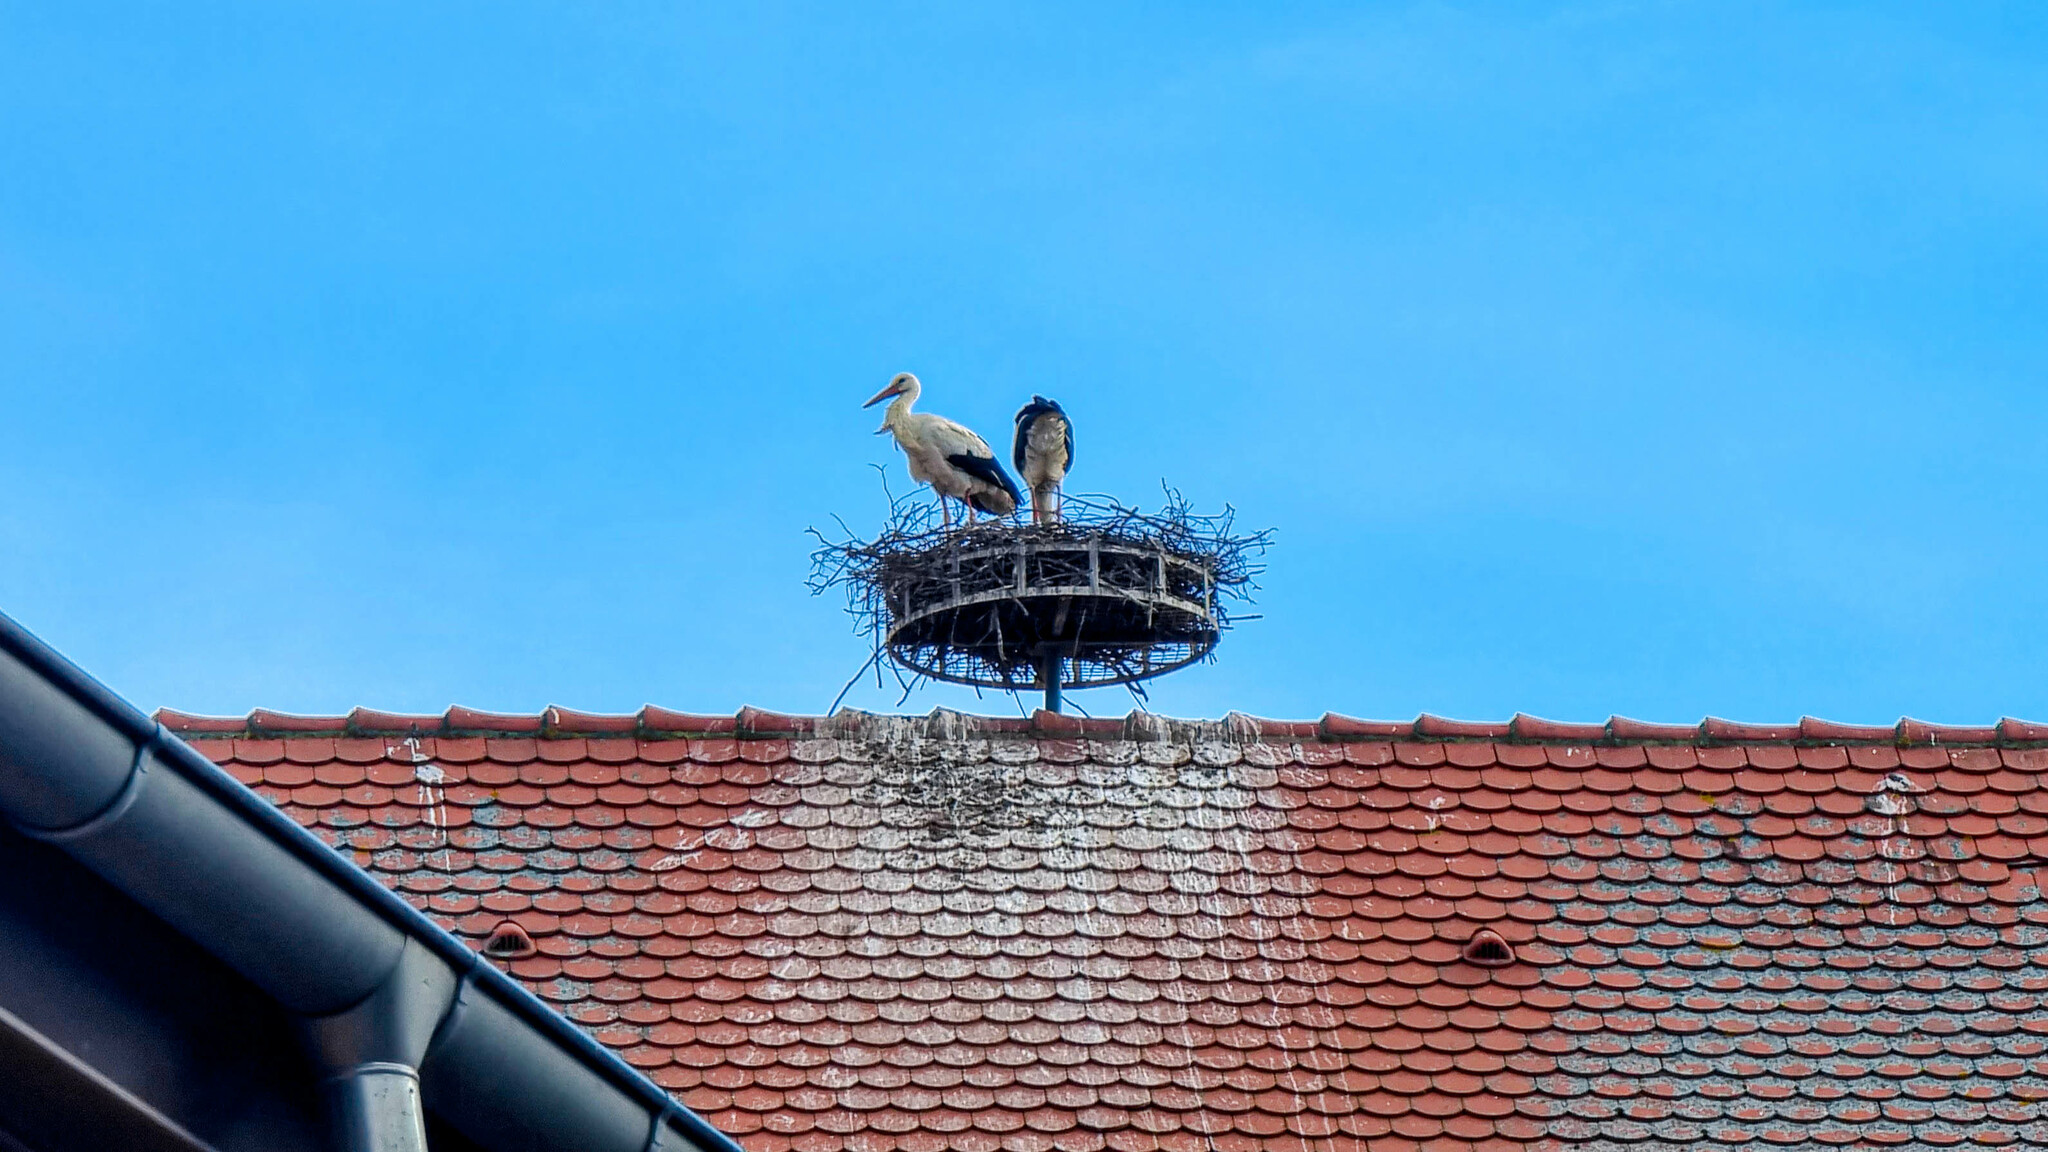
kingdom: Animalia
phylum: Chordata
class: Aves
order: Ciconiiformes
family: Ciconiidae
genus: Ciconia
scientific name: Ciconia ciconia
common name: White stork
